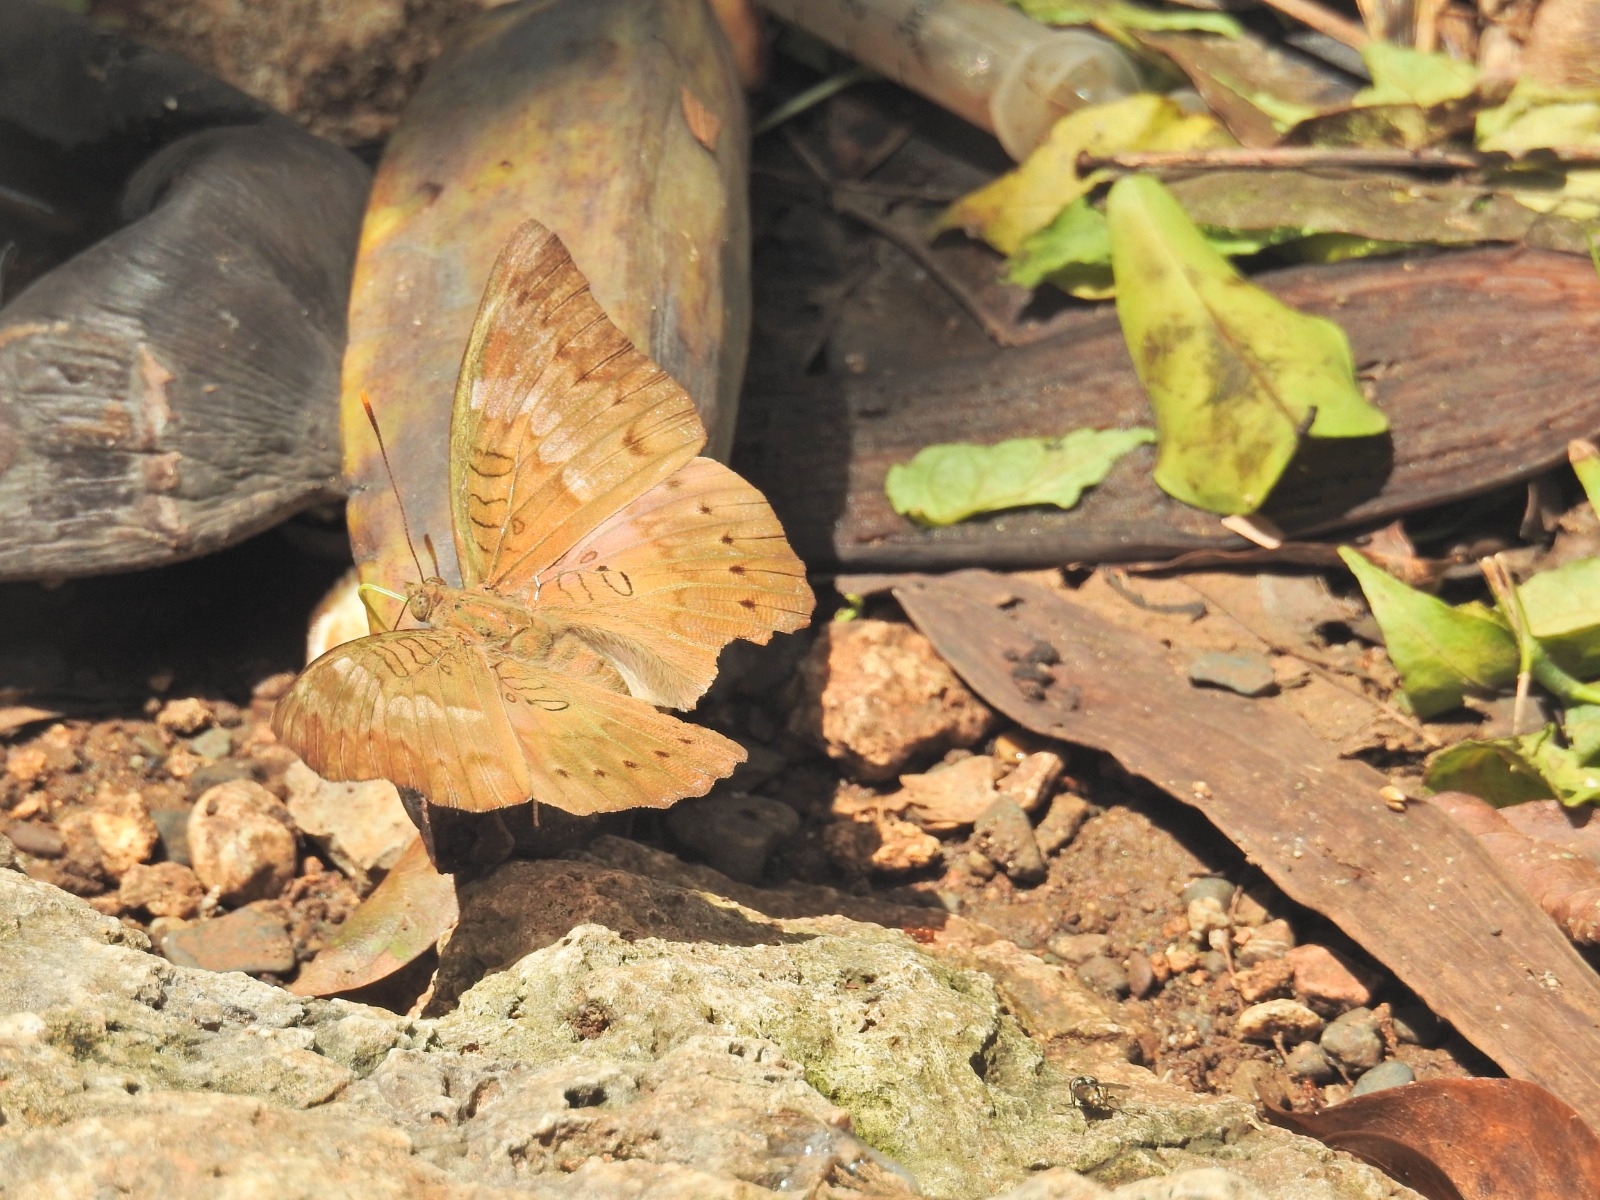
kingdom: Animalia
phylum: Arthropoda
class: Insecta
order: Lepidoptera
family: Nymphalidae
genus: Euthalia
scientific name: Euthalia aconthea
